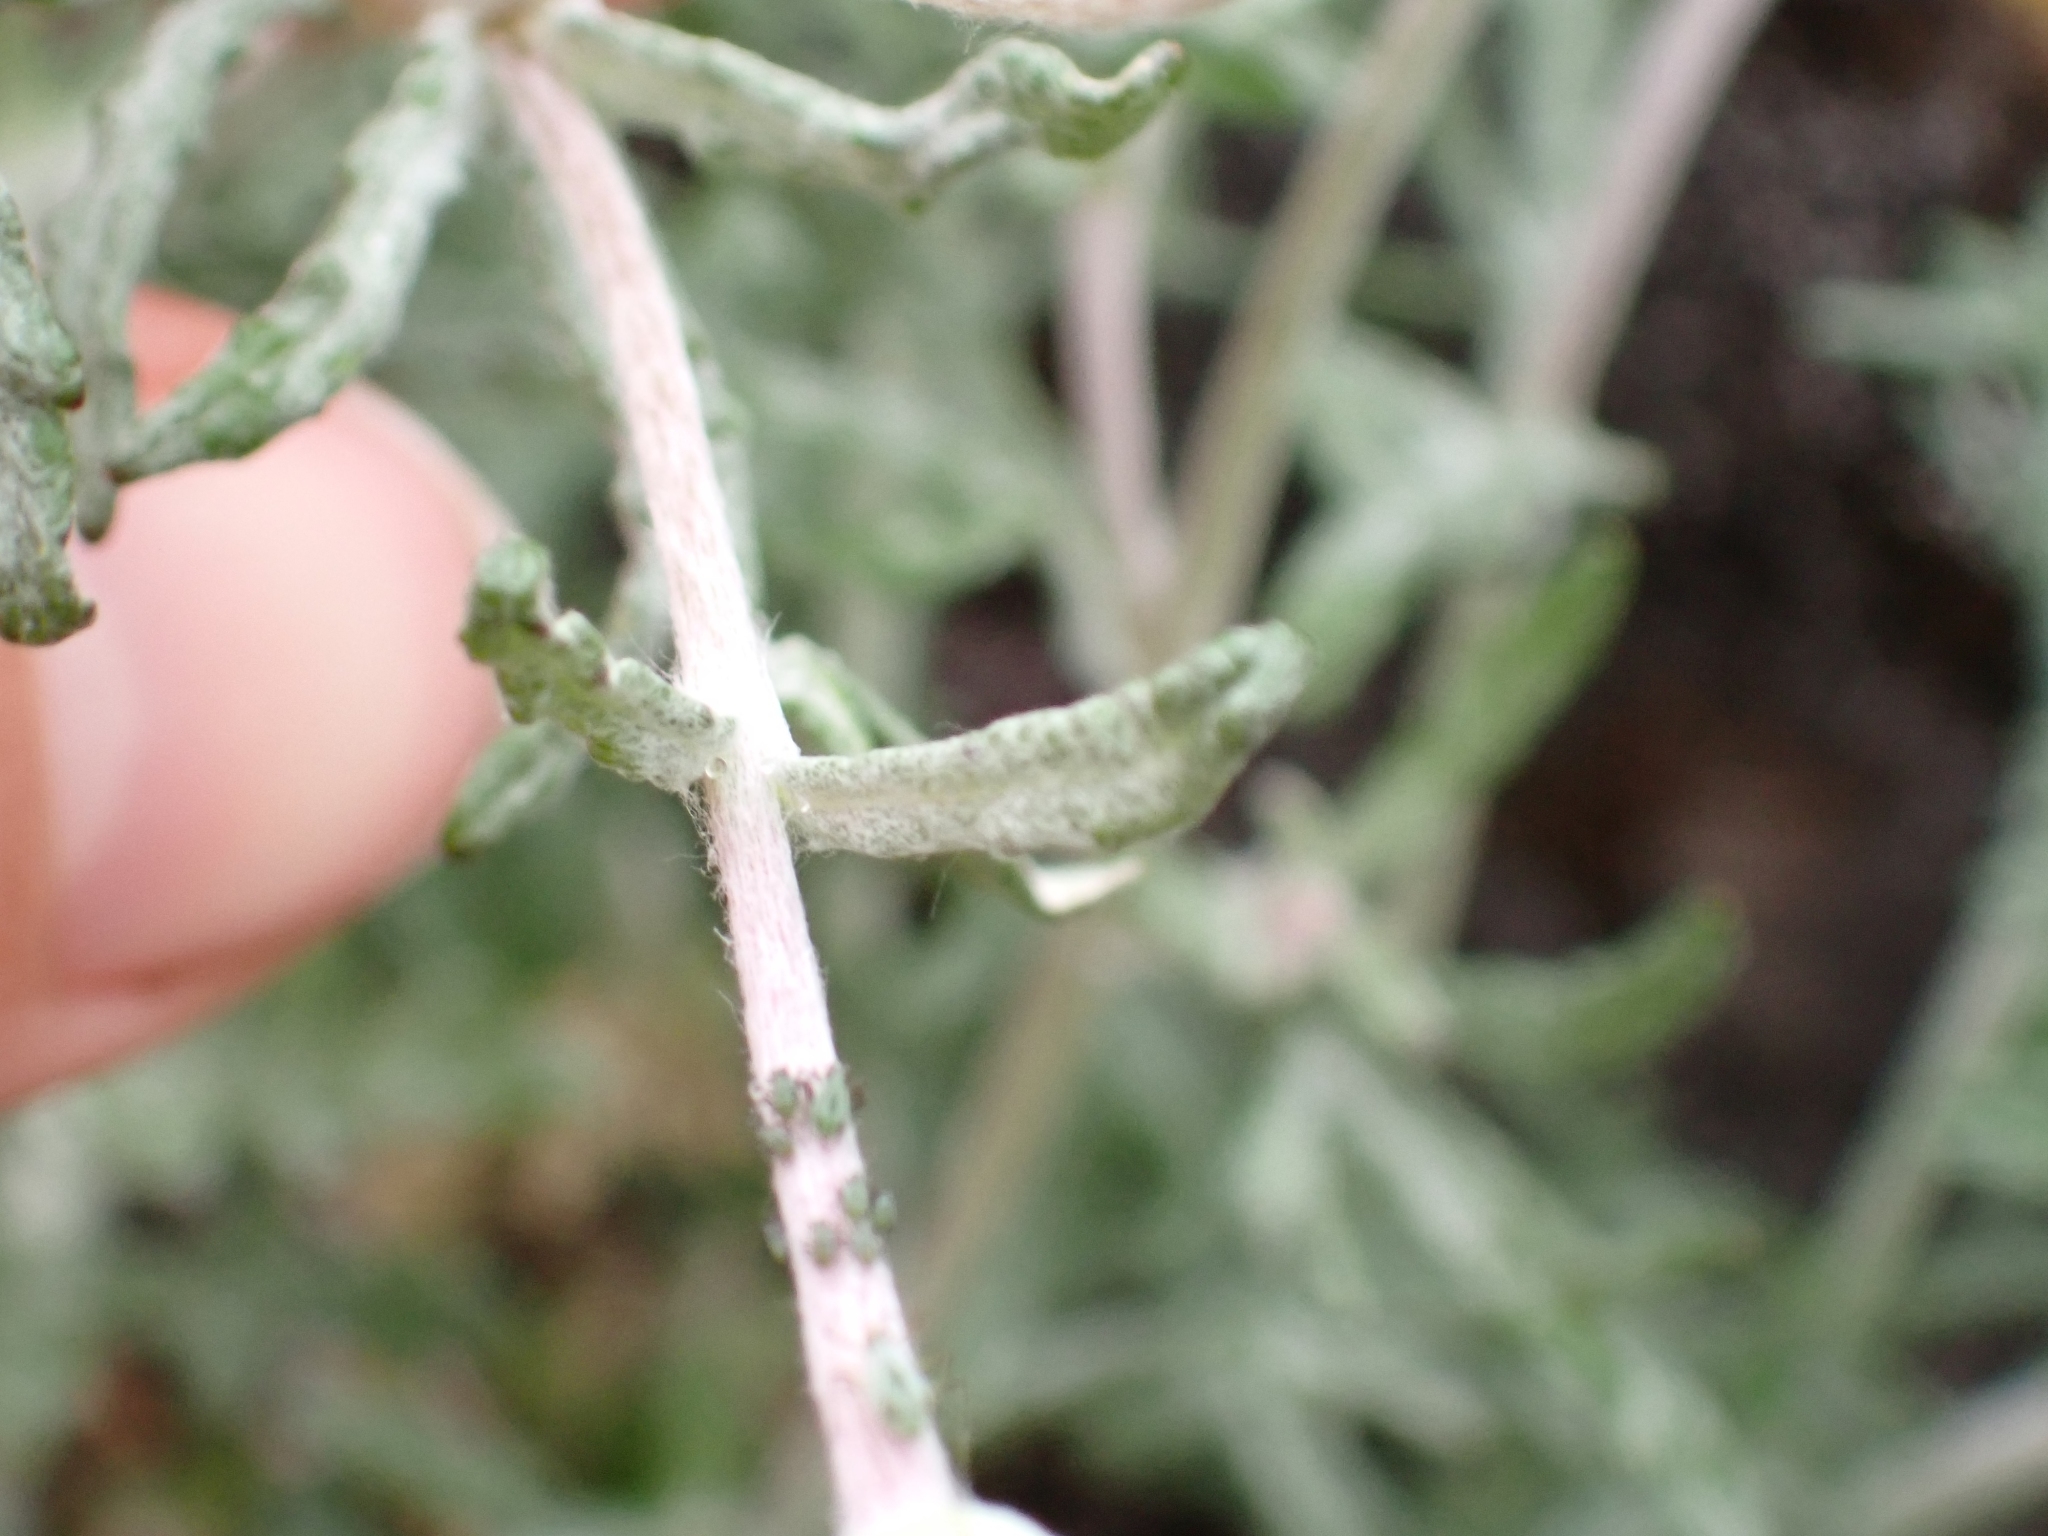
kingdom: Plantae
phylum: Tracheophyta
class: Magnoliopsida
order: Asterales
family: Asteraceae
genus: Eriophyllum
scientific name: Eriophyllum lanatum
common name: Common woolly-sunflower
